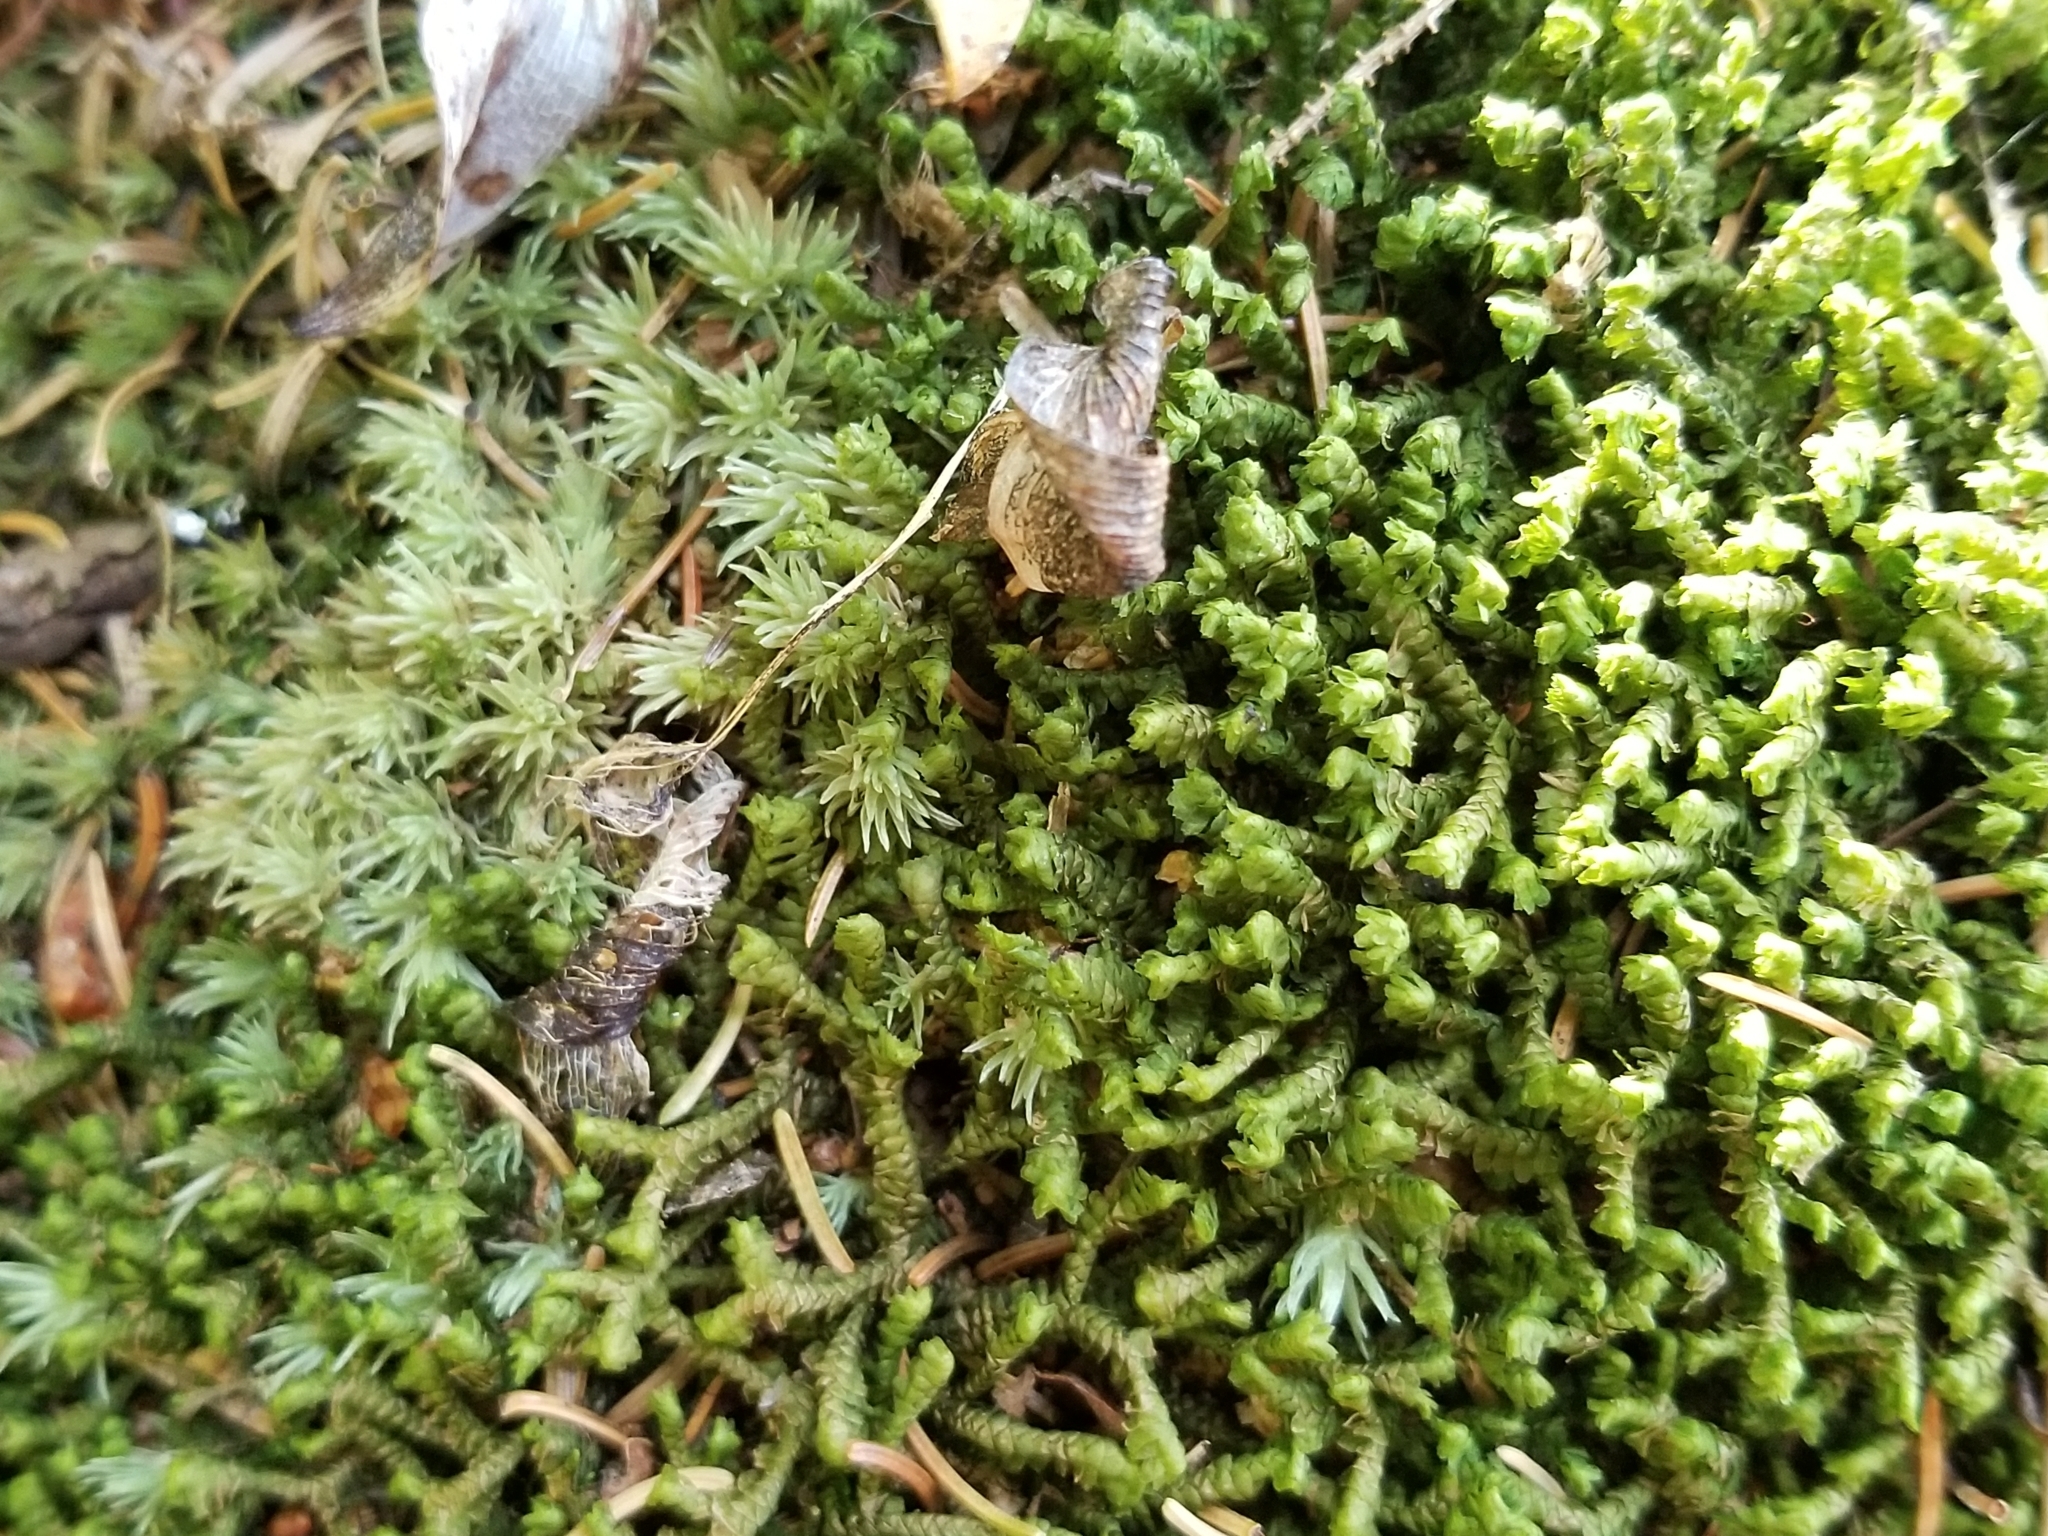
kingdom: Plantae
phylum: Marchantiophyta
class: Jungermanniopsida
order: Jungermanniales
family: Lepidoziaceae
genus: Bazzania
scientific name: Bazzania trilobata
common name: Three-lobed whipwort
